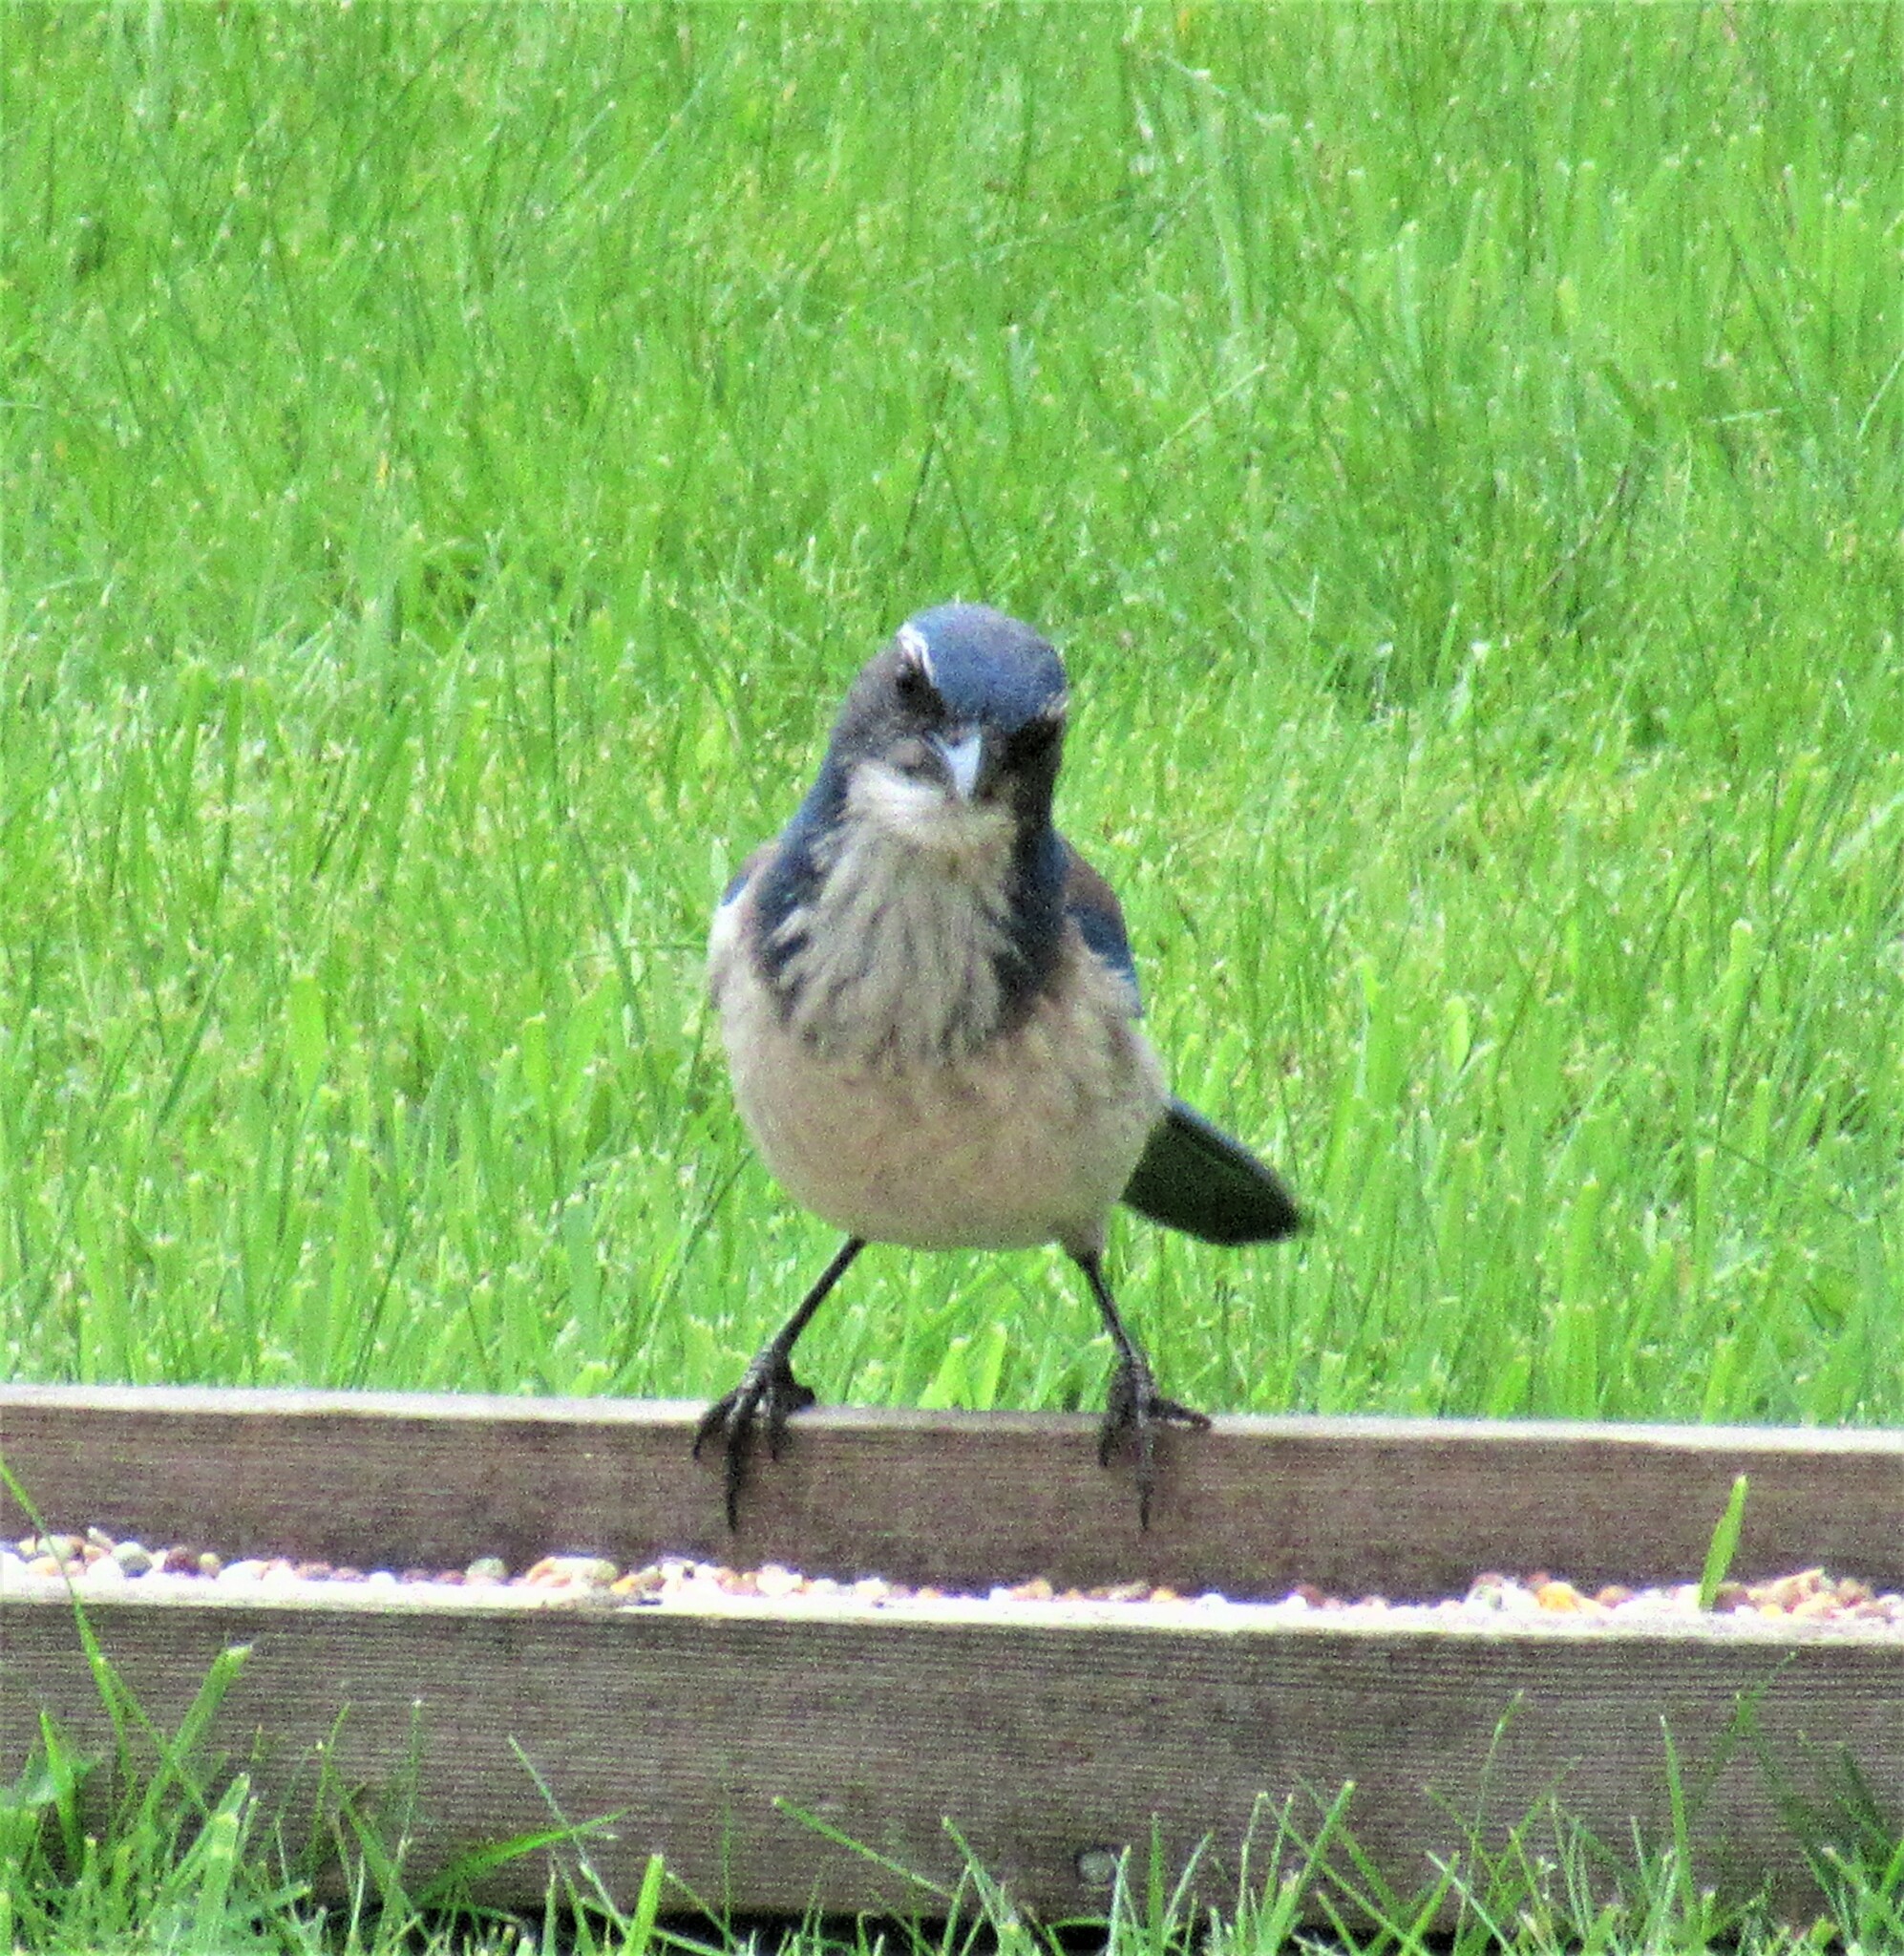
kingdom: Animalia
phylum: Chordata
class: Aves
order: Passeriformes
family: Corvidae
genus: Aphelocoma
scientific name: Aphelocoma californica
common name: California scrub-jay
